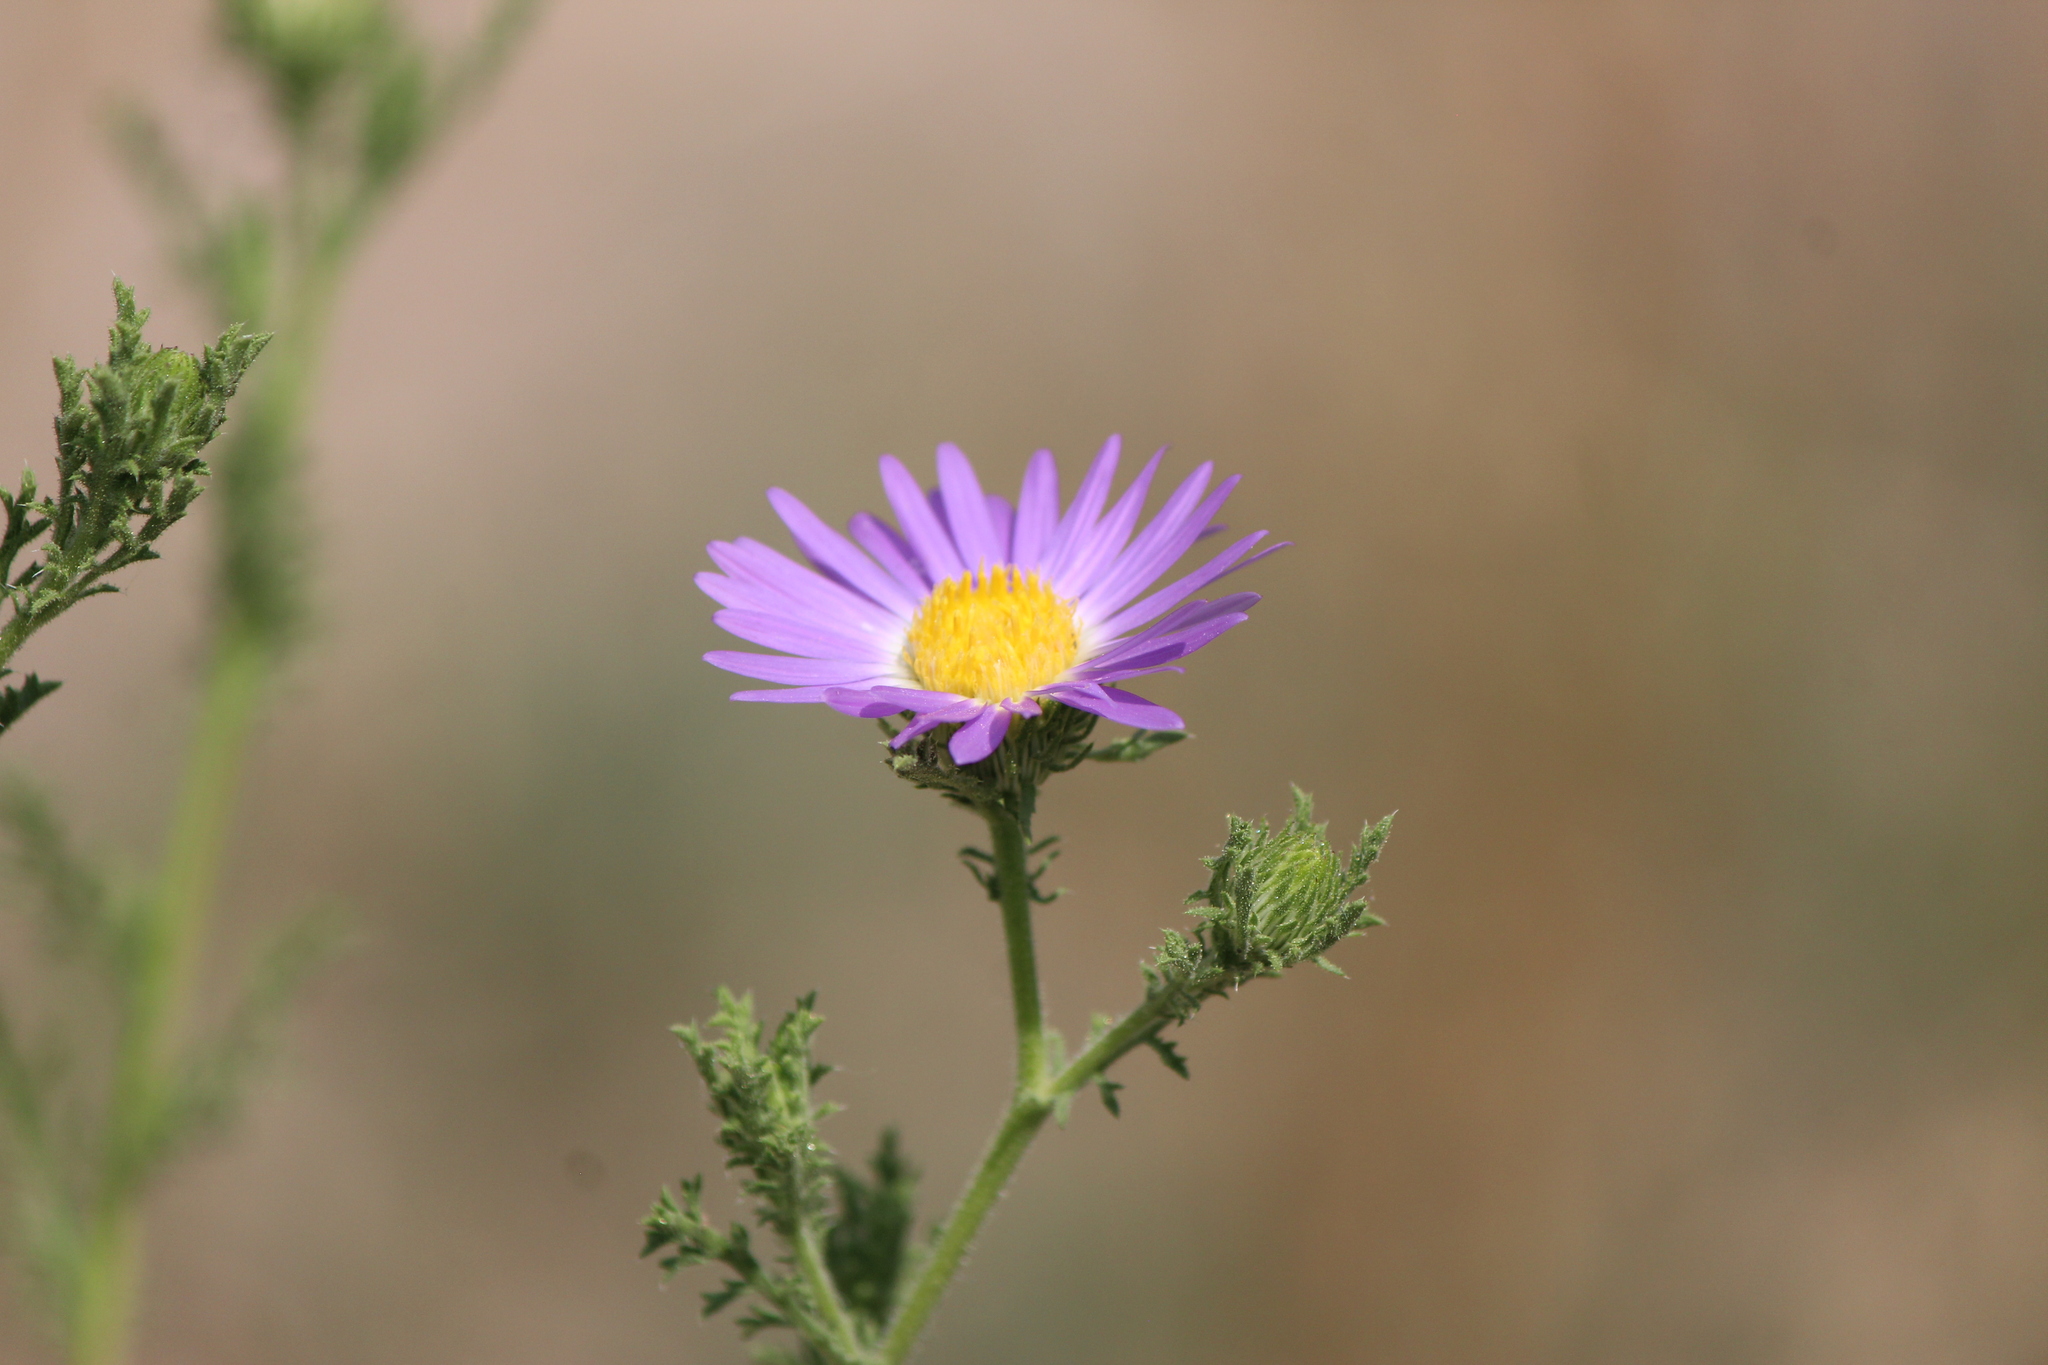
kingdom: Plantae
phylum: Tracheophyta
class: Magnoliopsida
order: Asterales
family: Asteraceae
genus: Machaeranthera
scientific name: Machaeranthera tanacetifolia
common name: Tansy-aster
